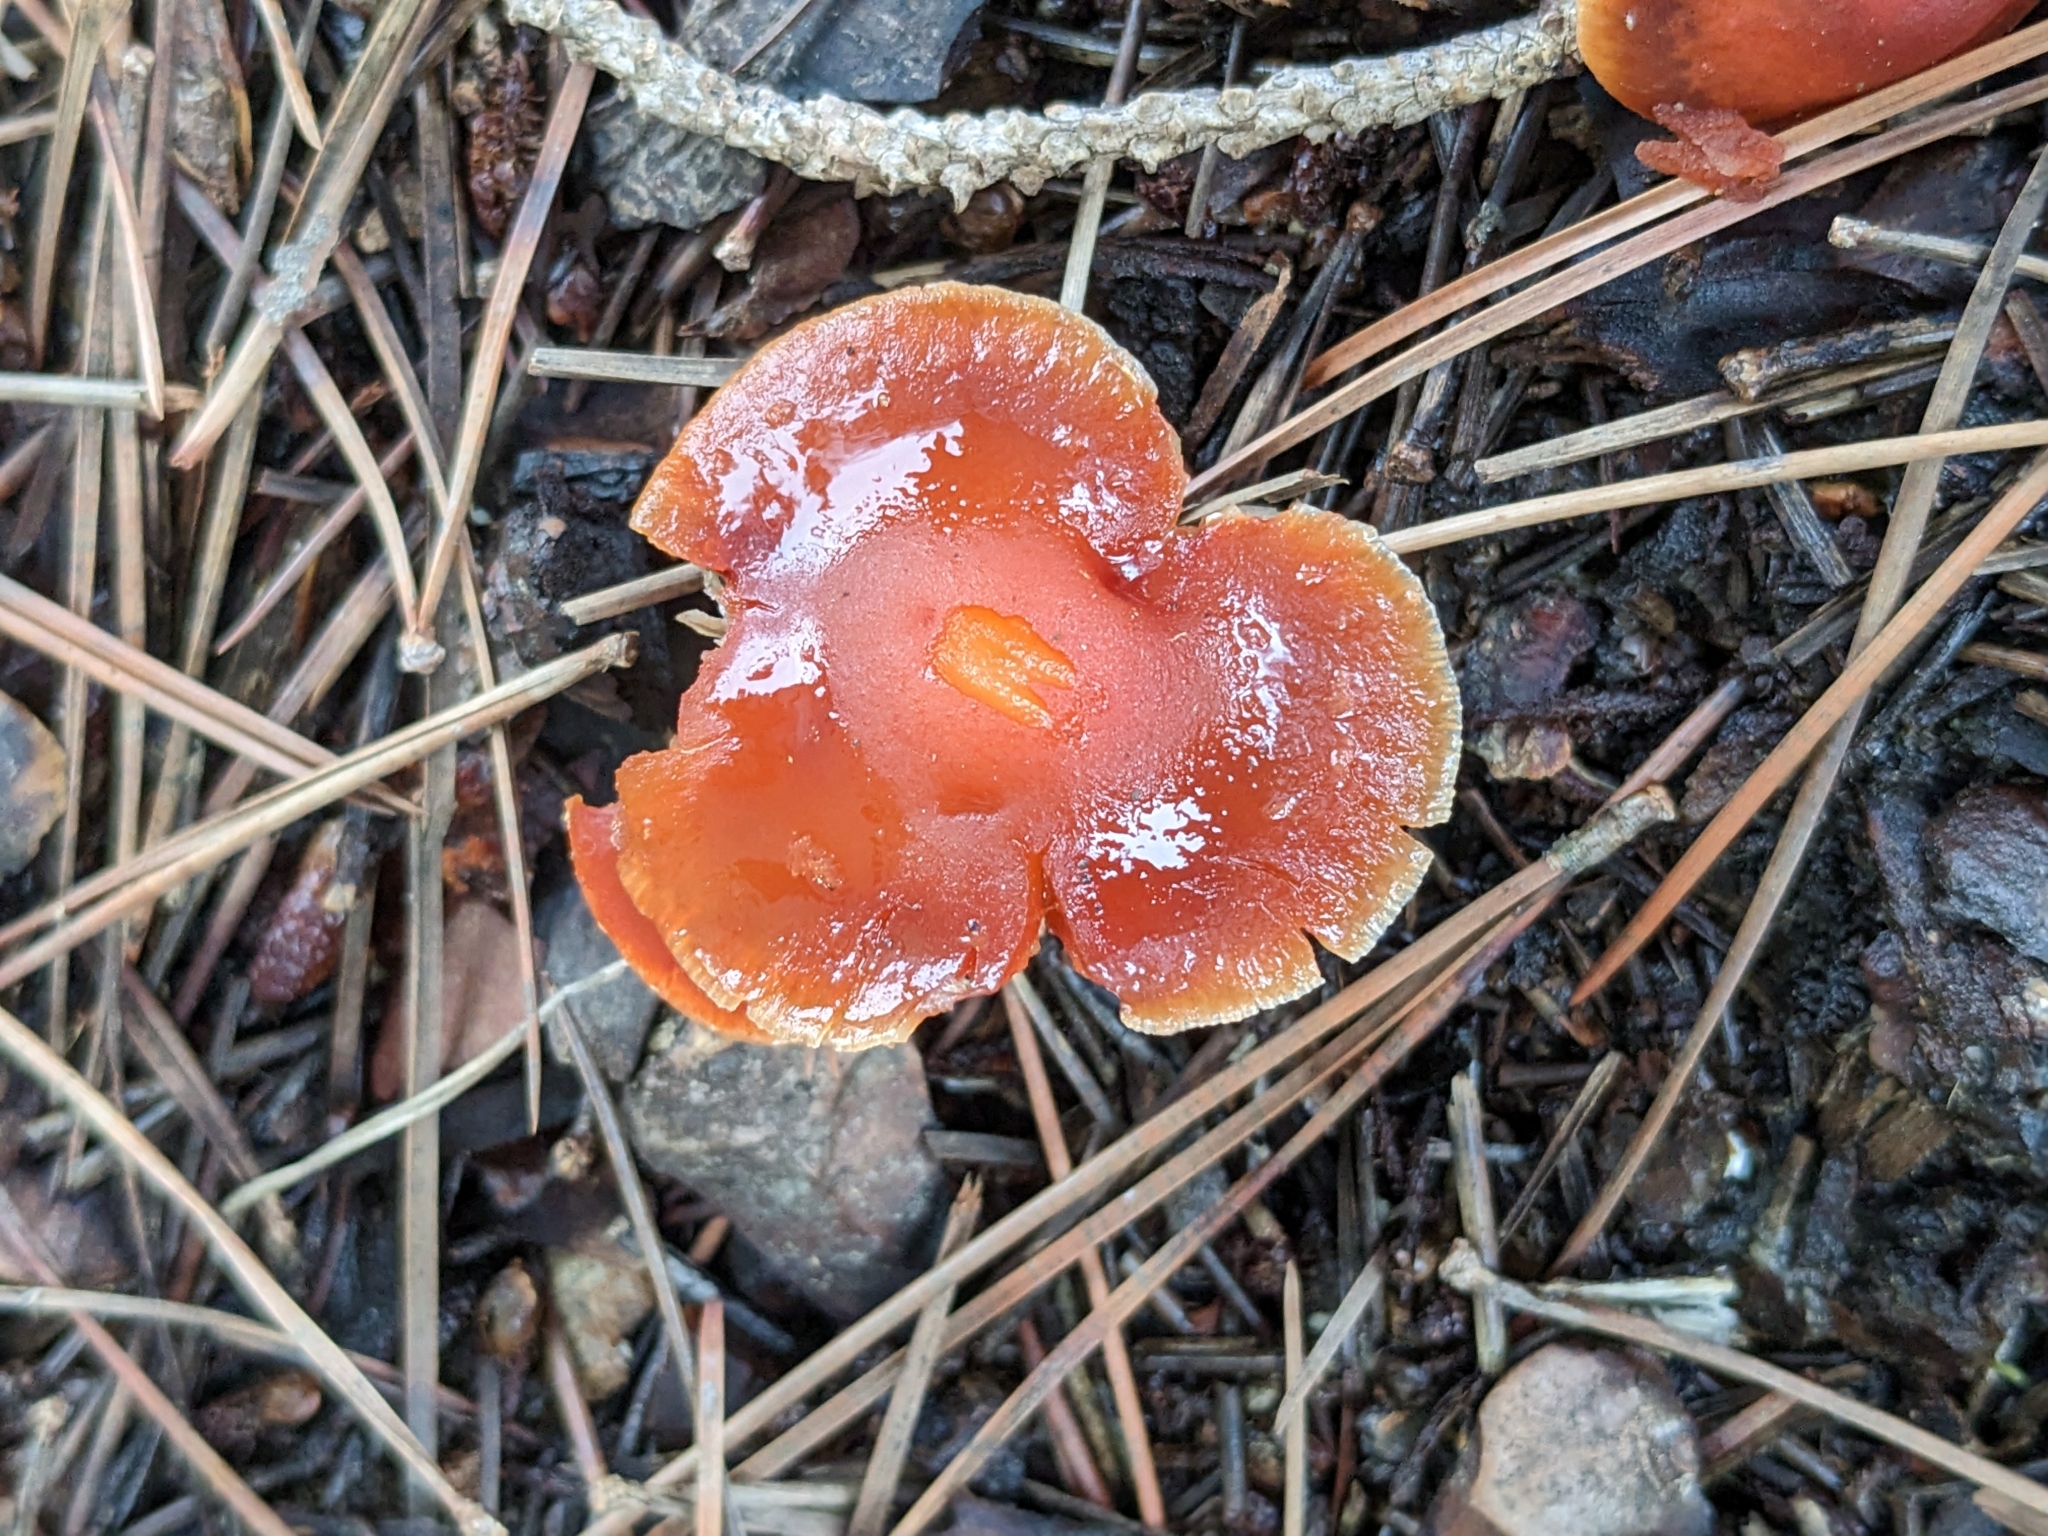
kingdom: Fungi
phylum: Basidiomycota
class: Agaricomycetes
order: Agaricales
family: Strophariaceae
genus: Leratiomyces
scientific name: Leratiomyces ceres
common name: Redlead roundhead
